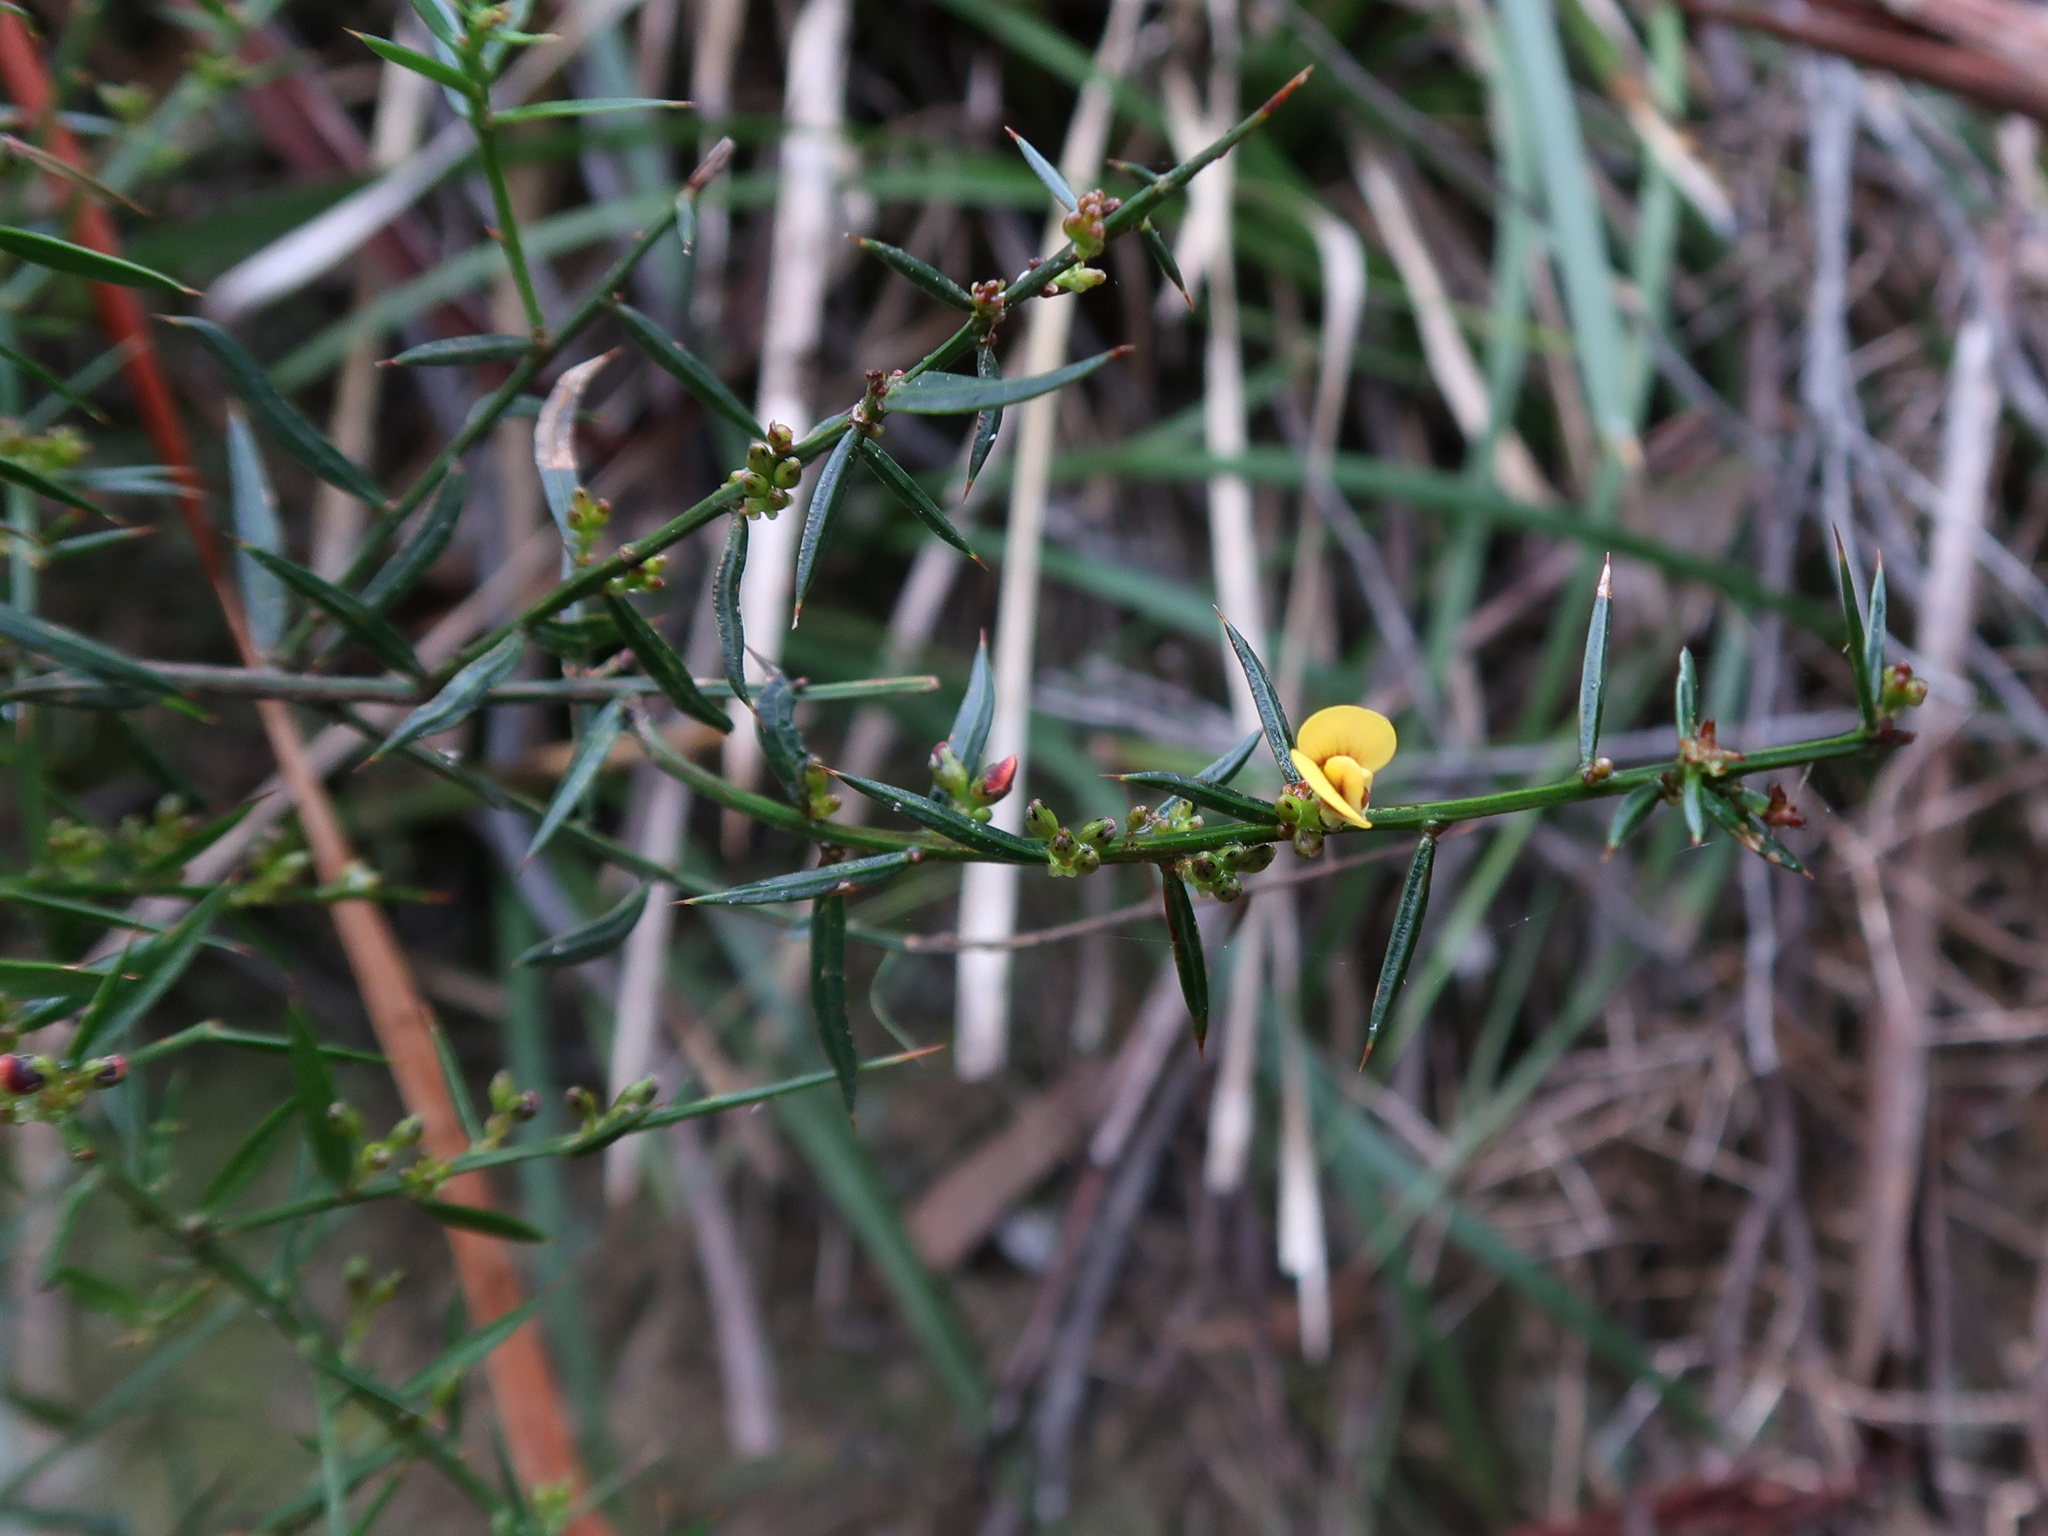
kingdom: Plantae
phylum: Tracheophyta
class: Magnoliopsida
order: Fabales
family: Fabaceae
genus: Daviesia
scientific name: Daviesia ulicifolia
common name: Gorse bitter-pea
